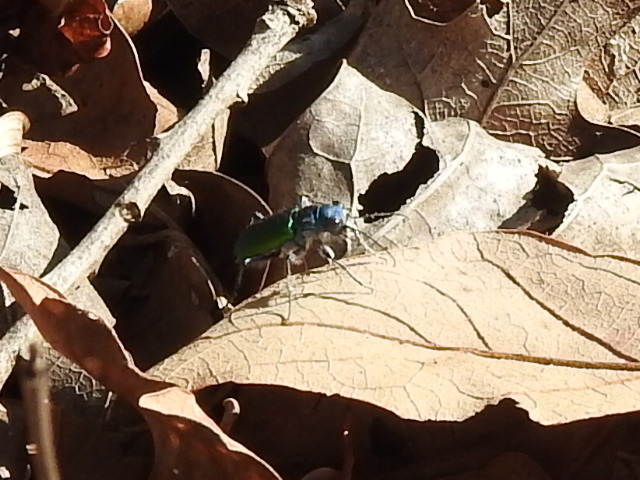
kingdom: Animalia
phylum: Arthropoda
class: Insecta
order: Coleoptera
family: Carabidae
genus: Cicindela
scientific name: Cicindela scutellaris
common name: Festive tiger beetle
